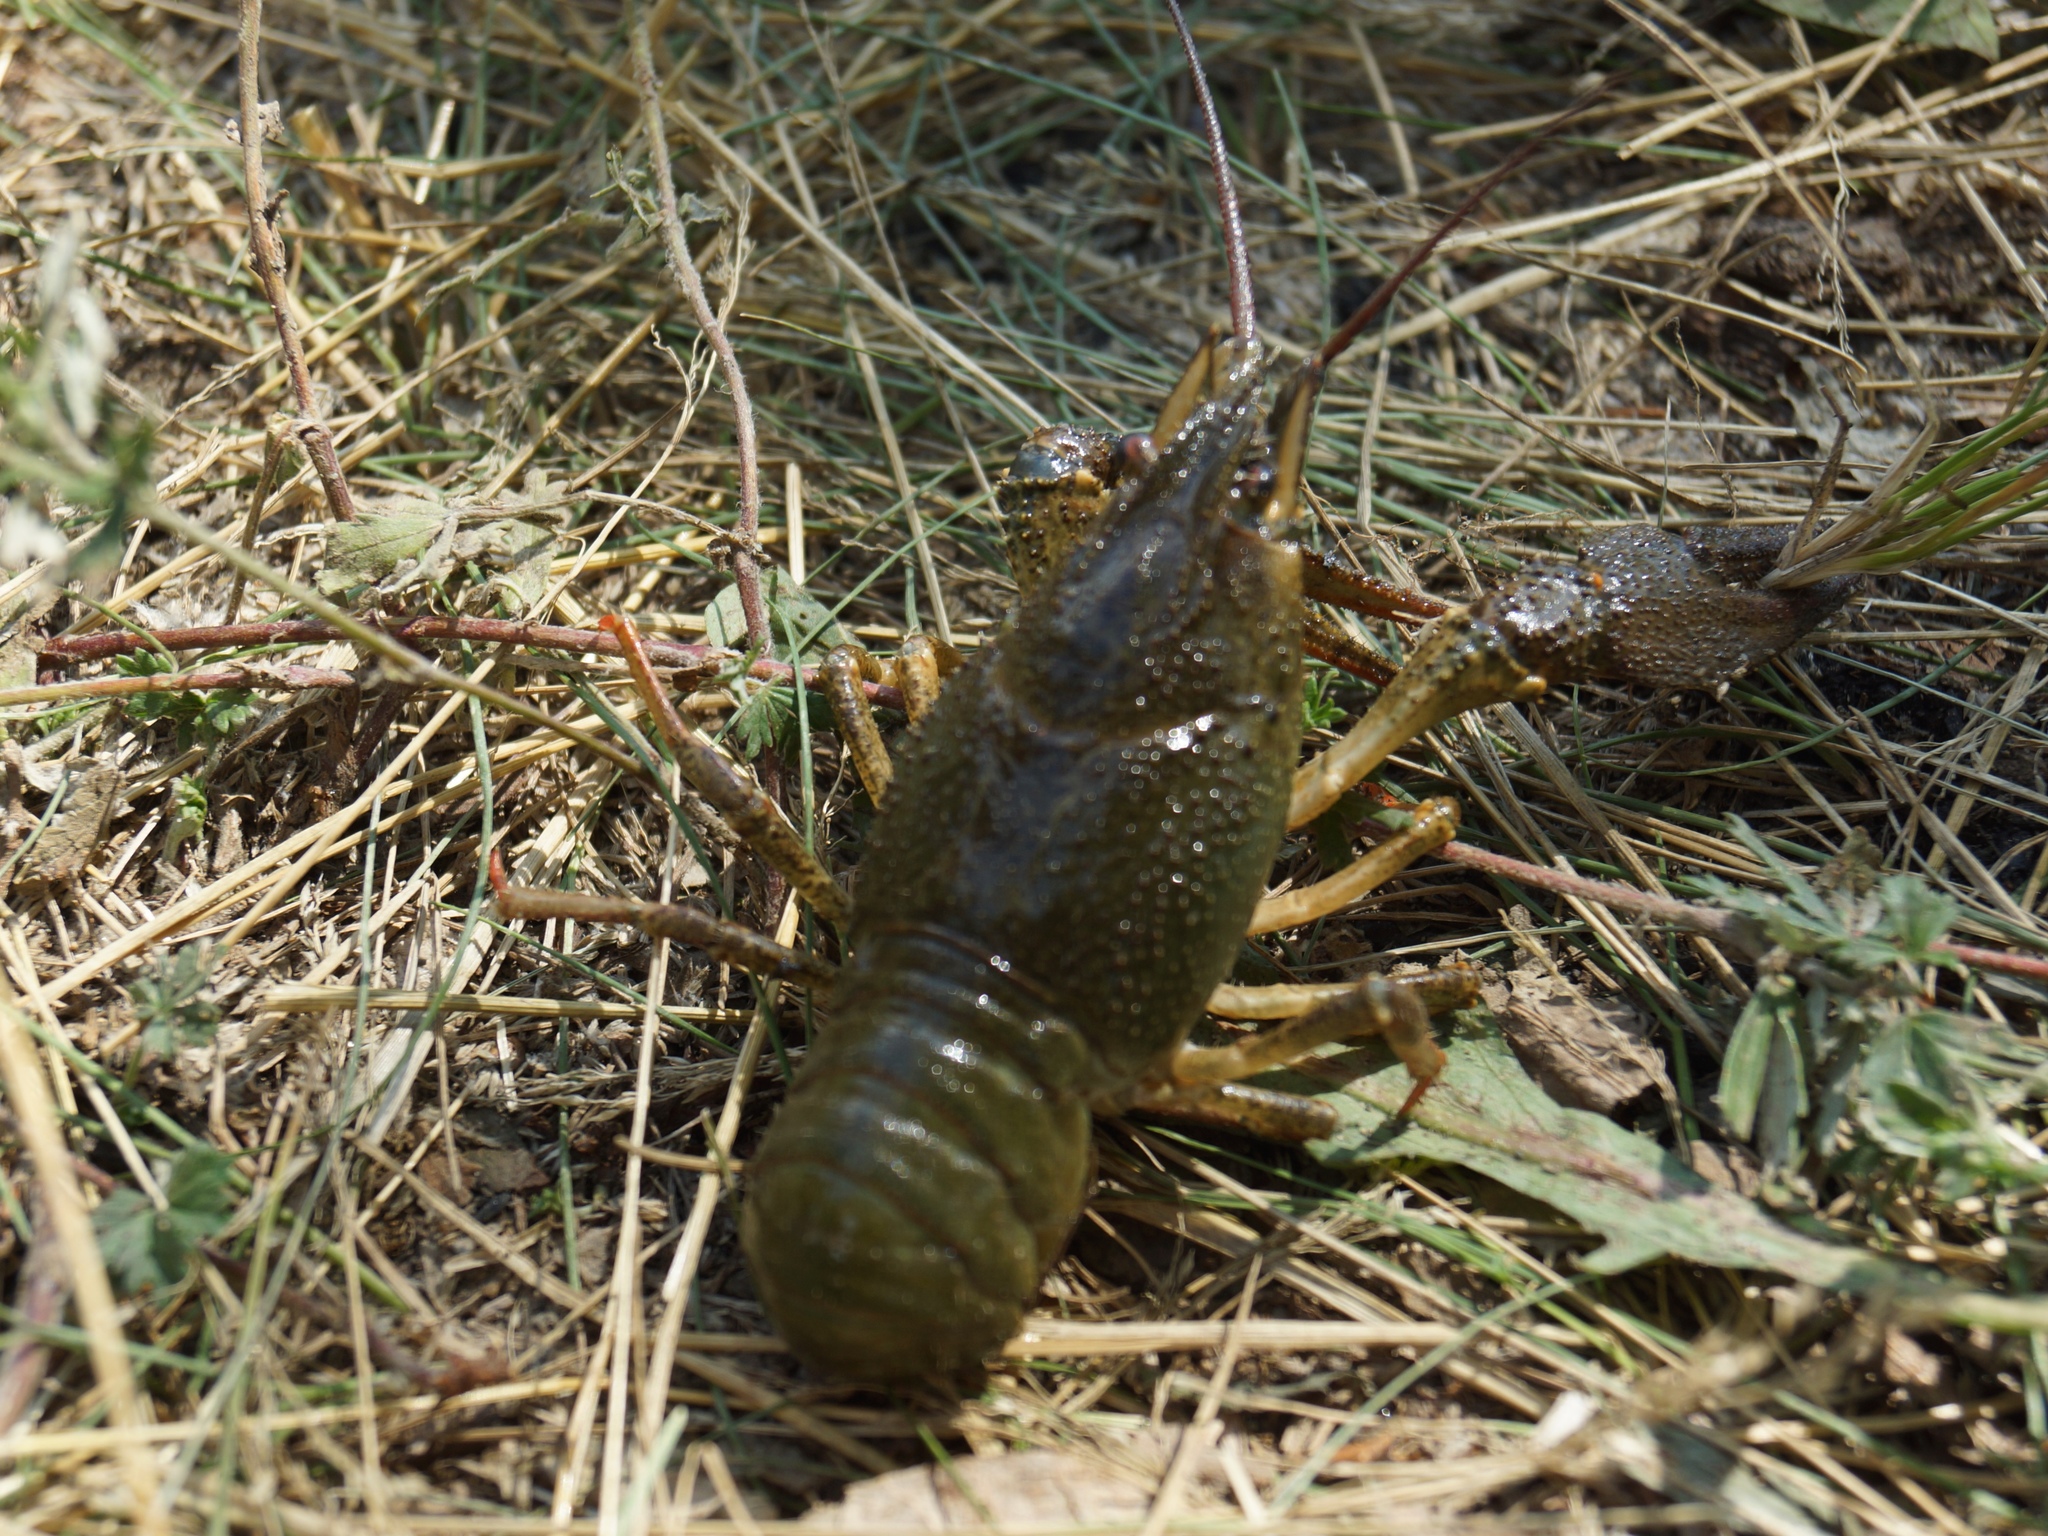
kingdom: Animalia
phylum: Arthropoda
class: Malacostraca
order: Decapoda
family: Astacidae
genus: Pontastacus
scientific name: Pontastacus leptodactylus
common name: Danube crayfish
